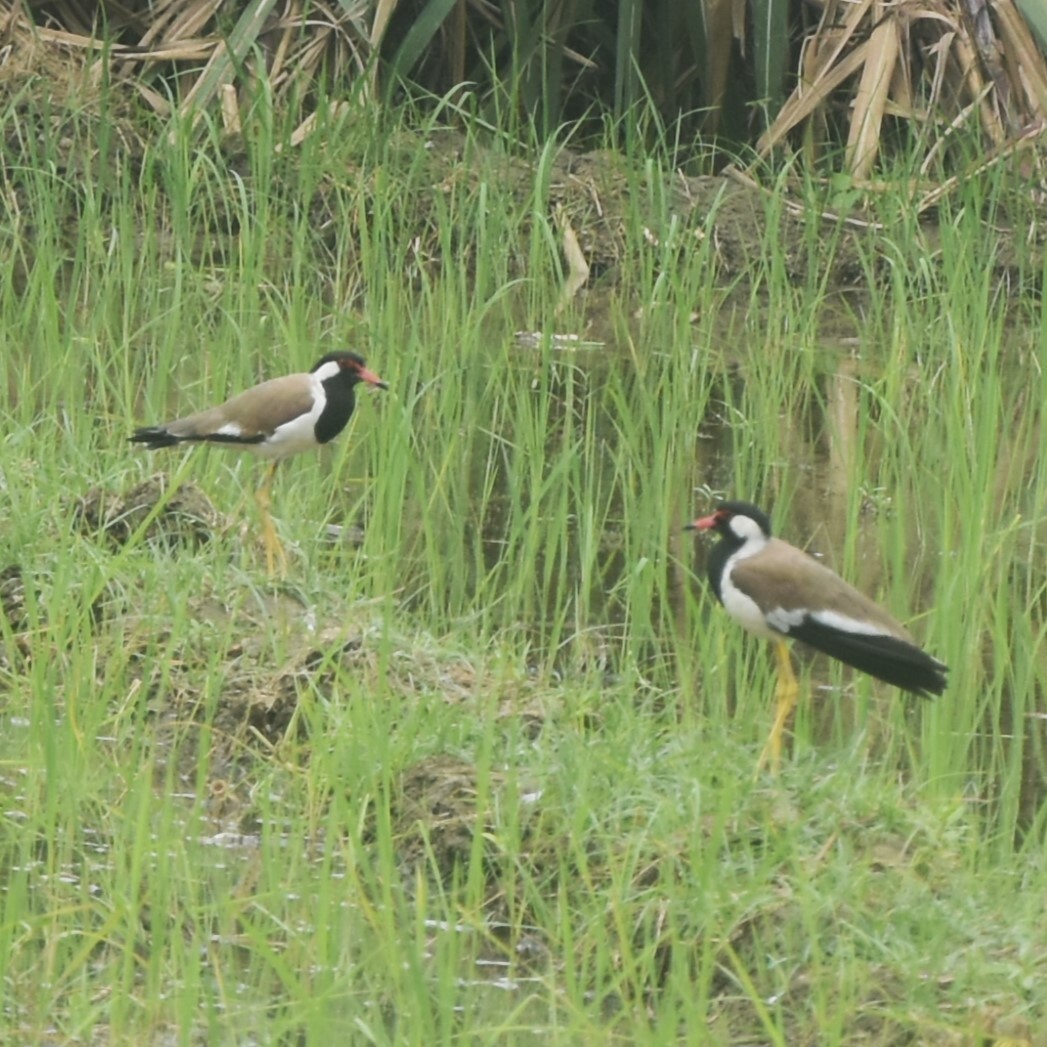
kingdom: Animalia
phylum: Chordata
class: Aves
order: Charadriiformes
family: Charadriidae
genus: Vanellus
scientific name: Vanellus indicus
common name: Red-wattled lapwing
